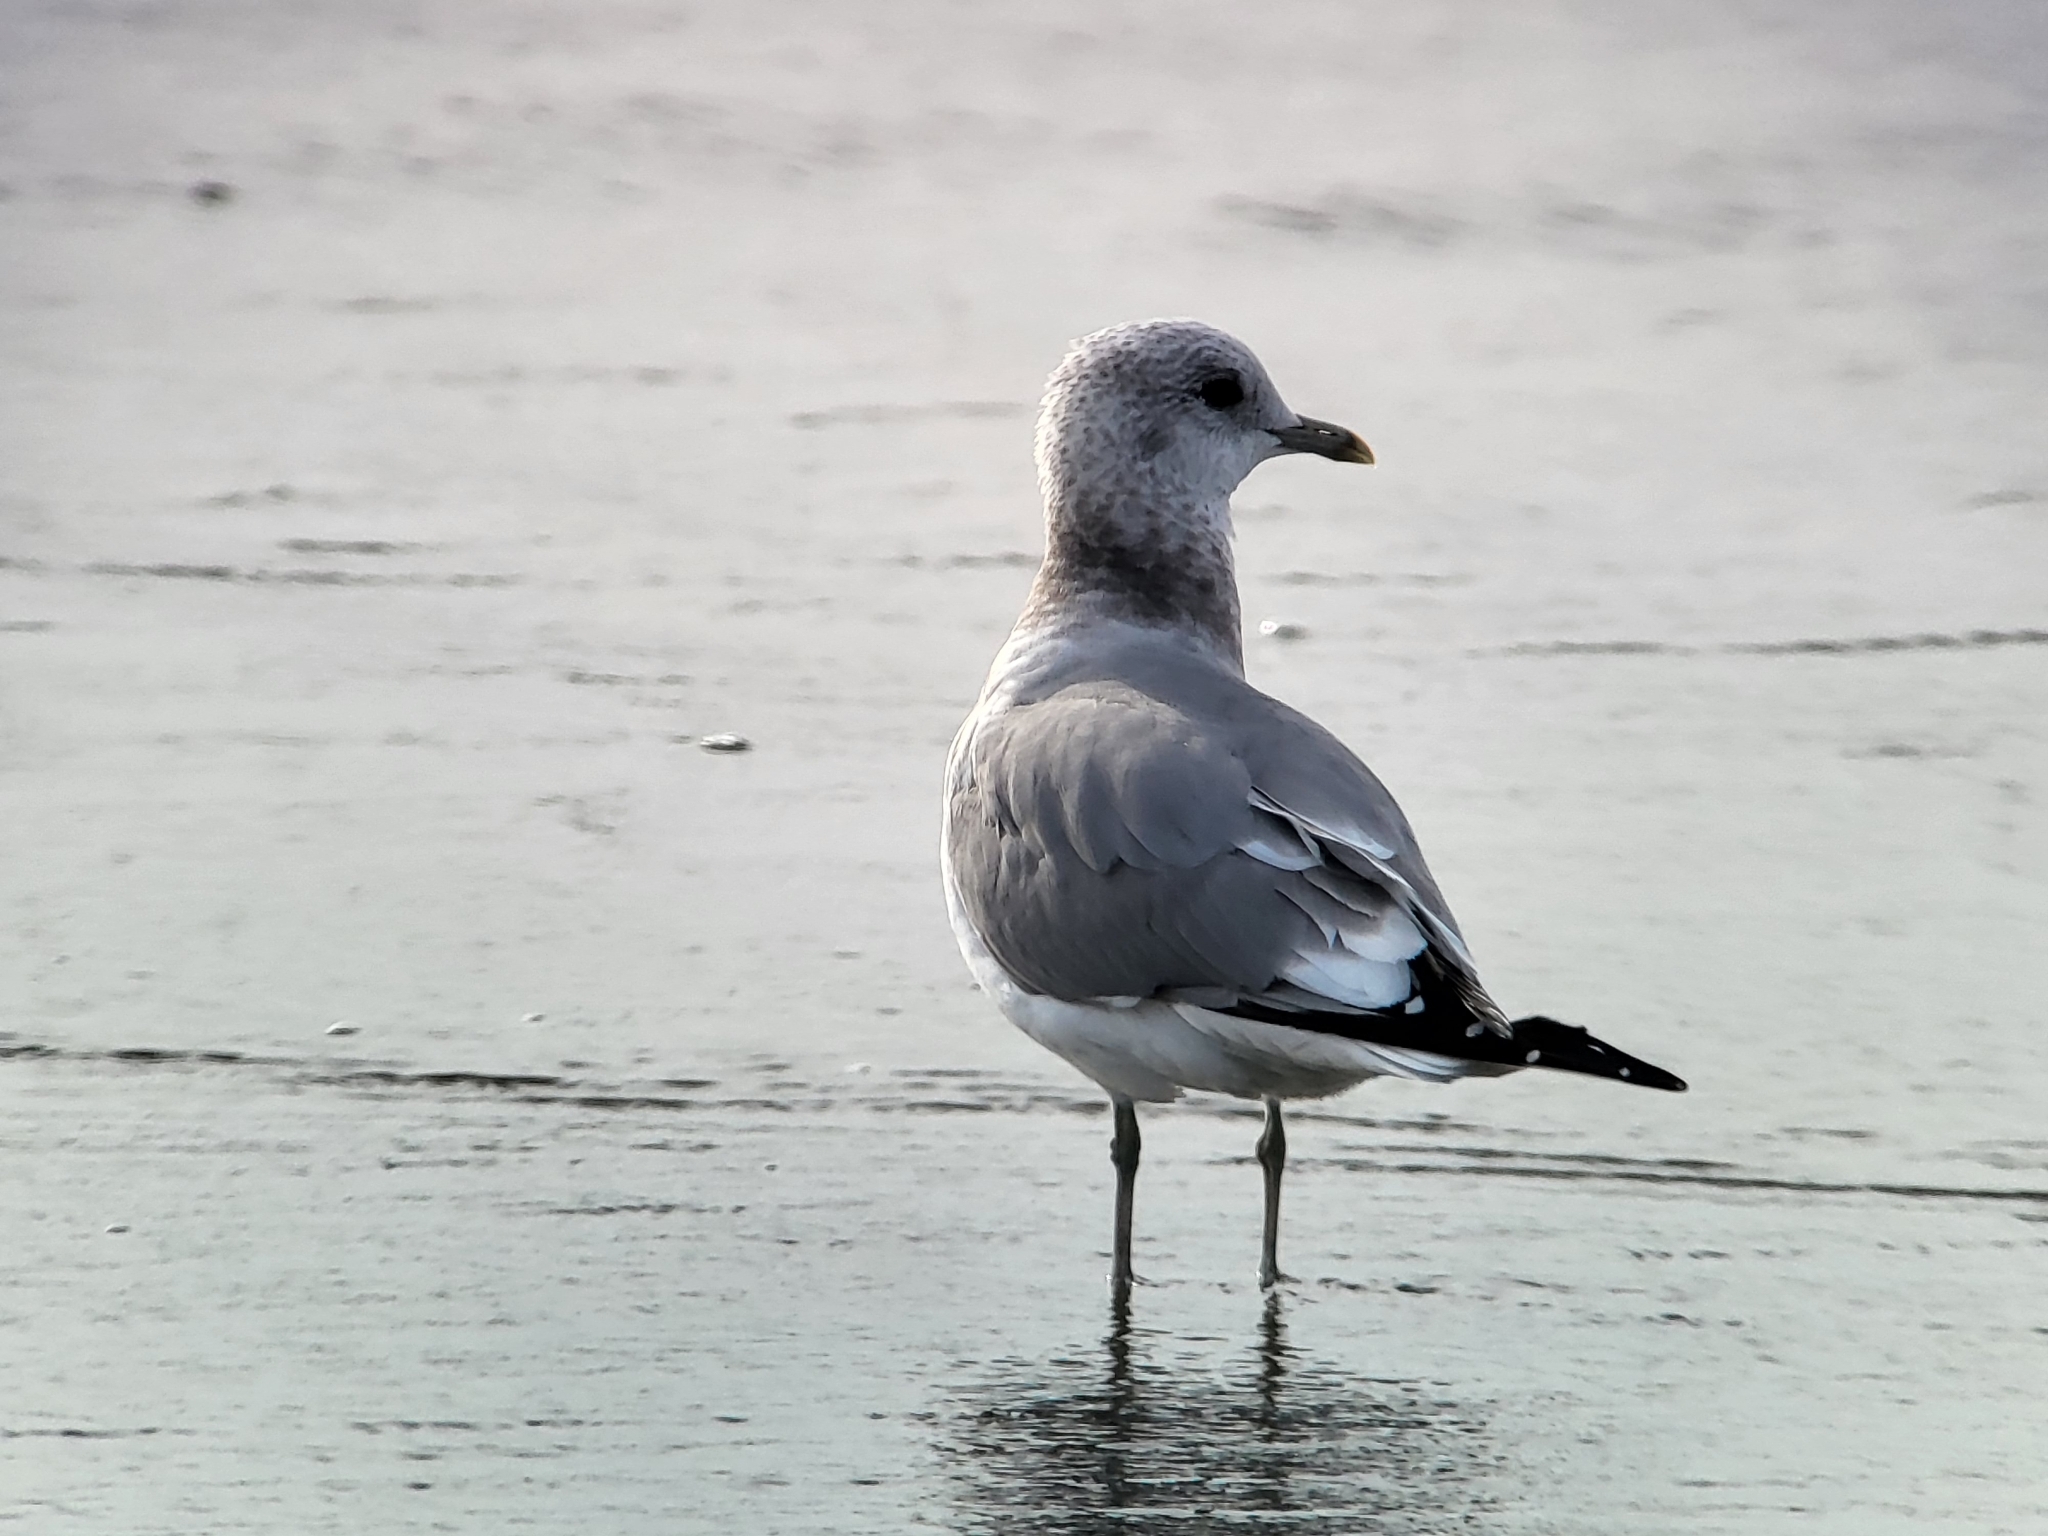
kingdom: Animalia
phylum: Chordata
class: Aves
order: Charadriiformes
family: Laridae
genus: Larus
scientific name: Larus brachyrhynchus
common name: Short-billed gull
